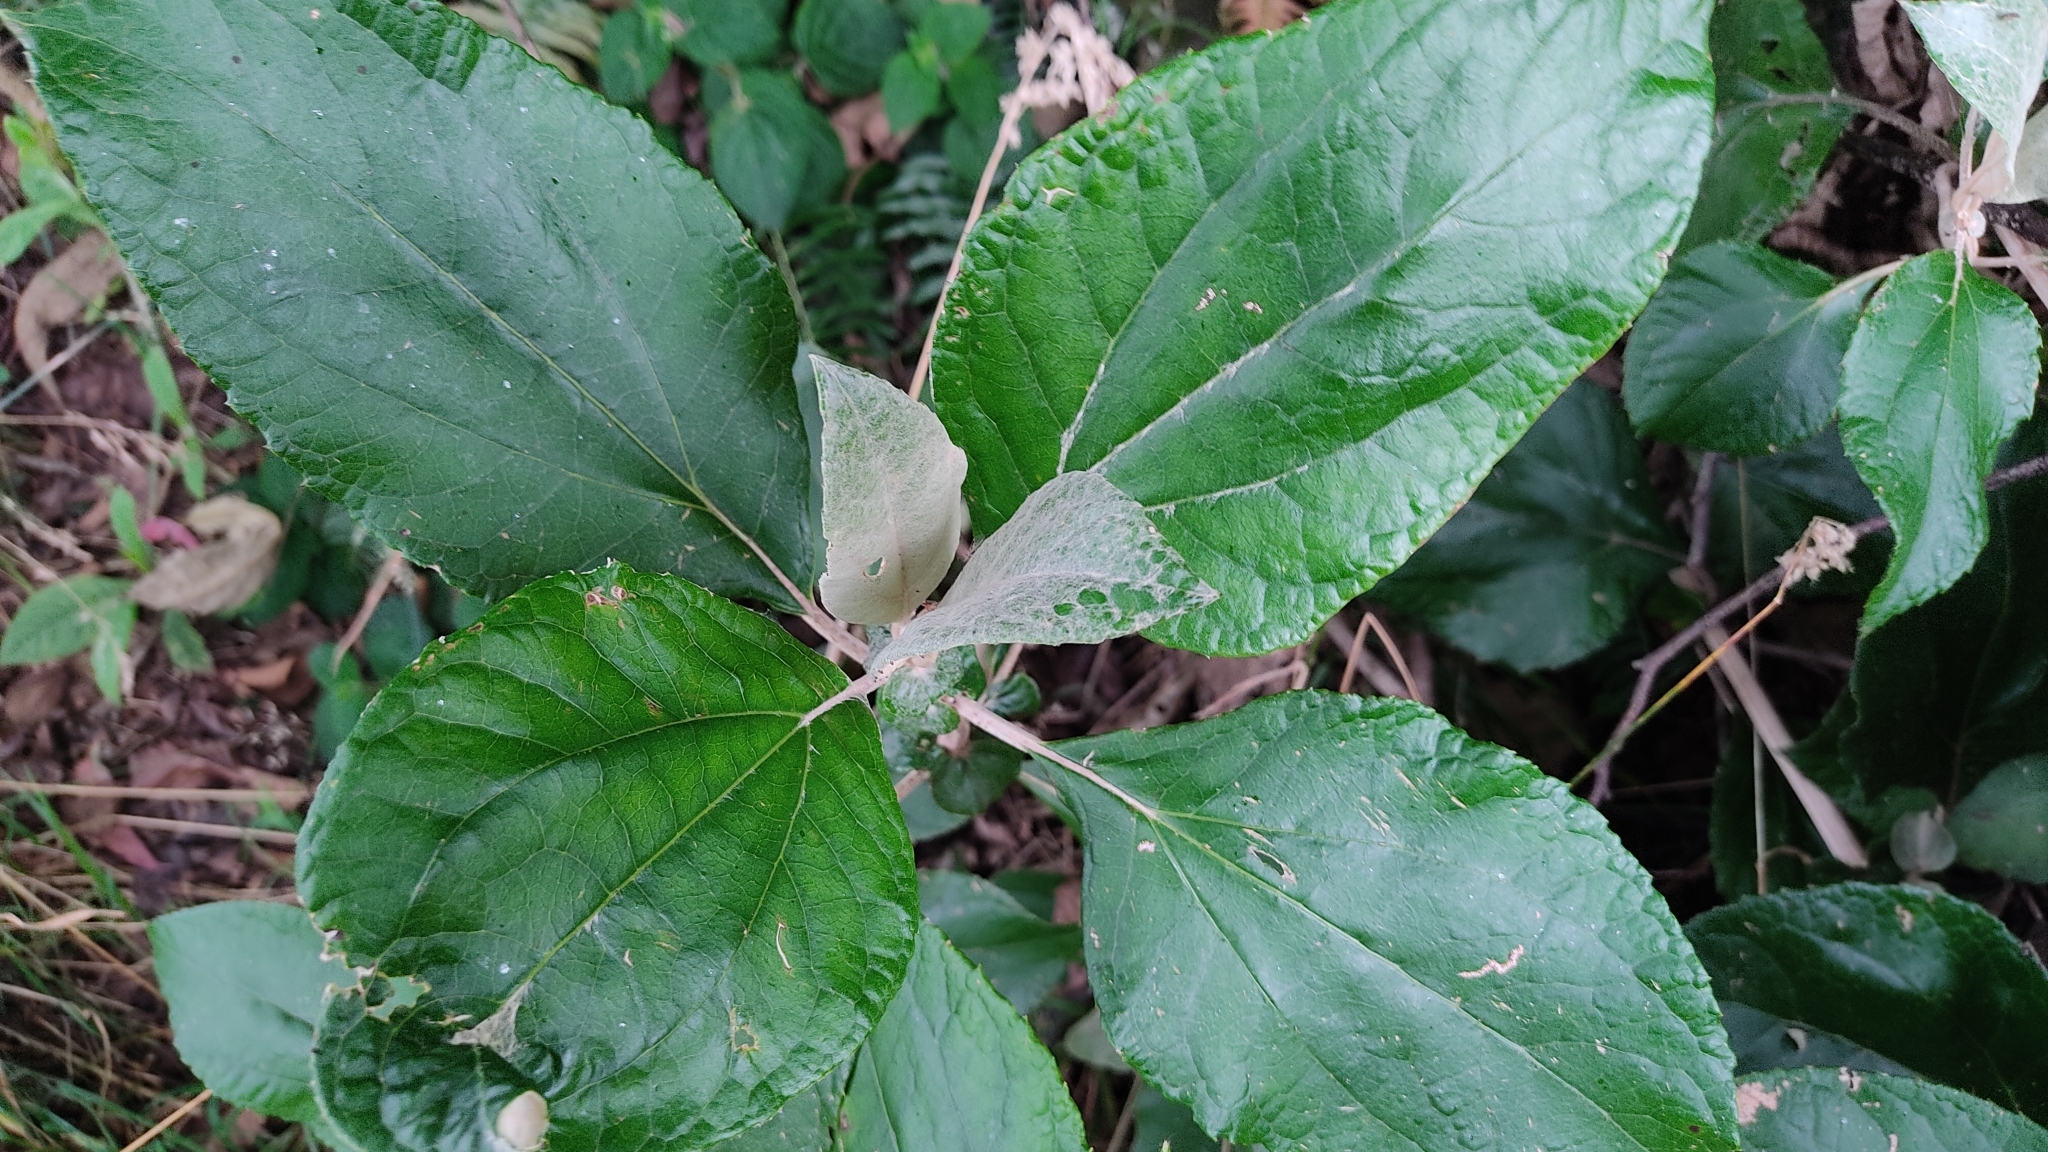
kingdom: Plantae
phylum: Tracheophyta
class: Magnoliopsida
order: Asterales
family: Asteraceae
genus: Liabum
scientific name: Liabum igniarium
